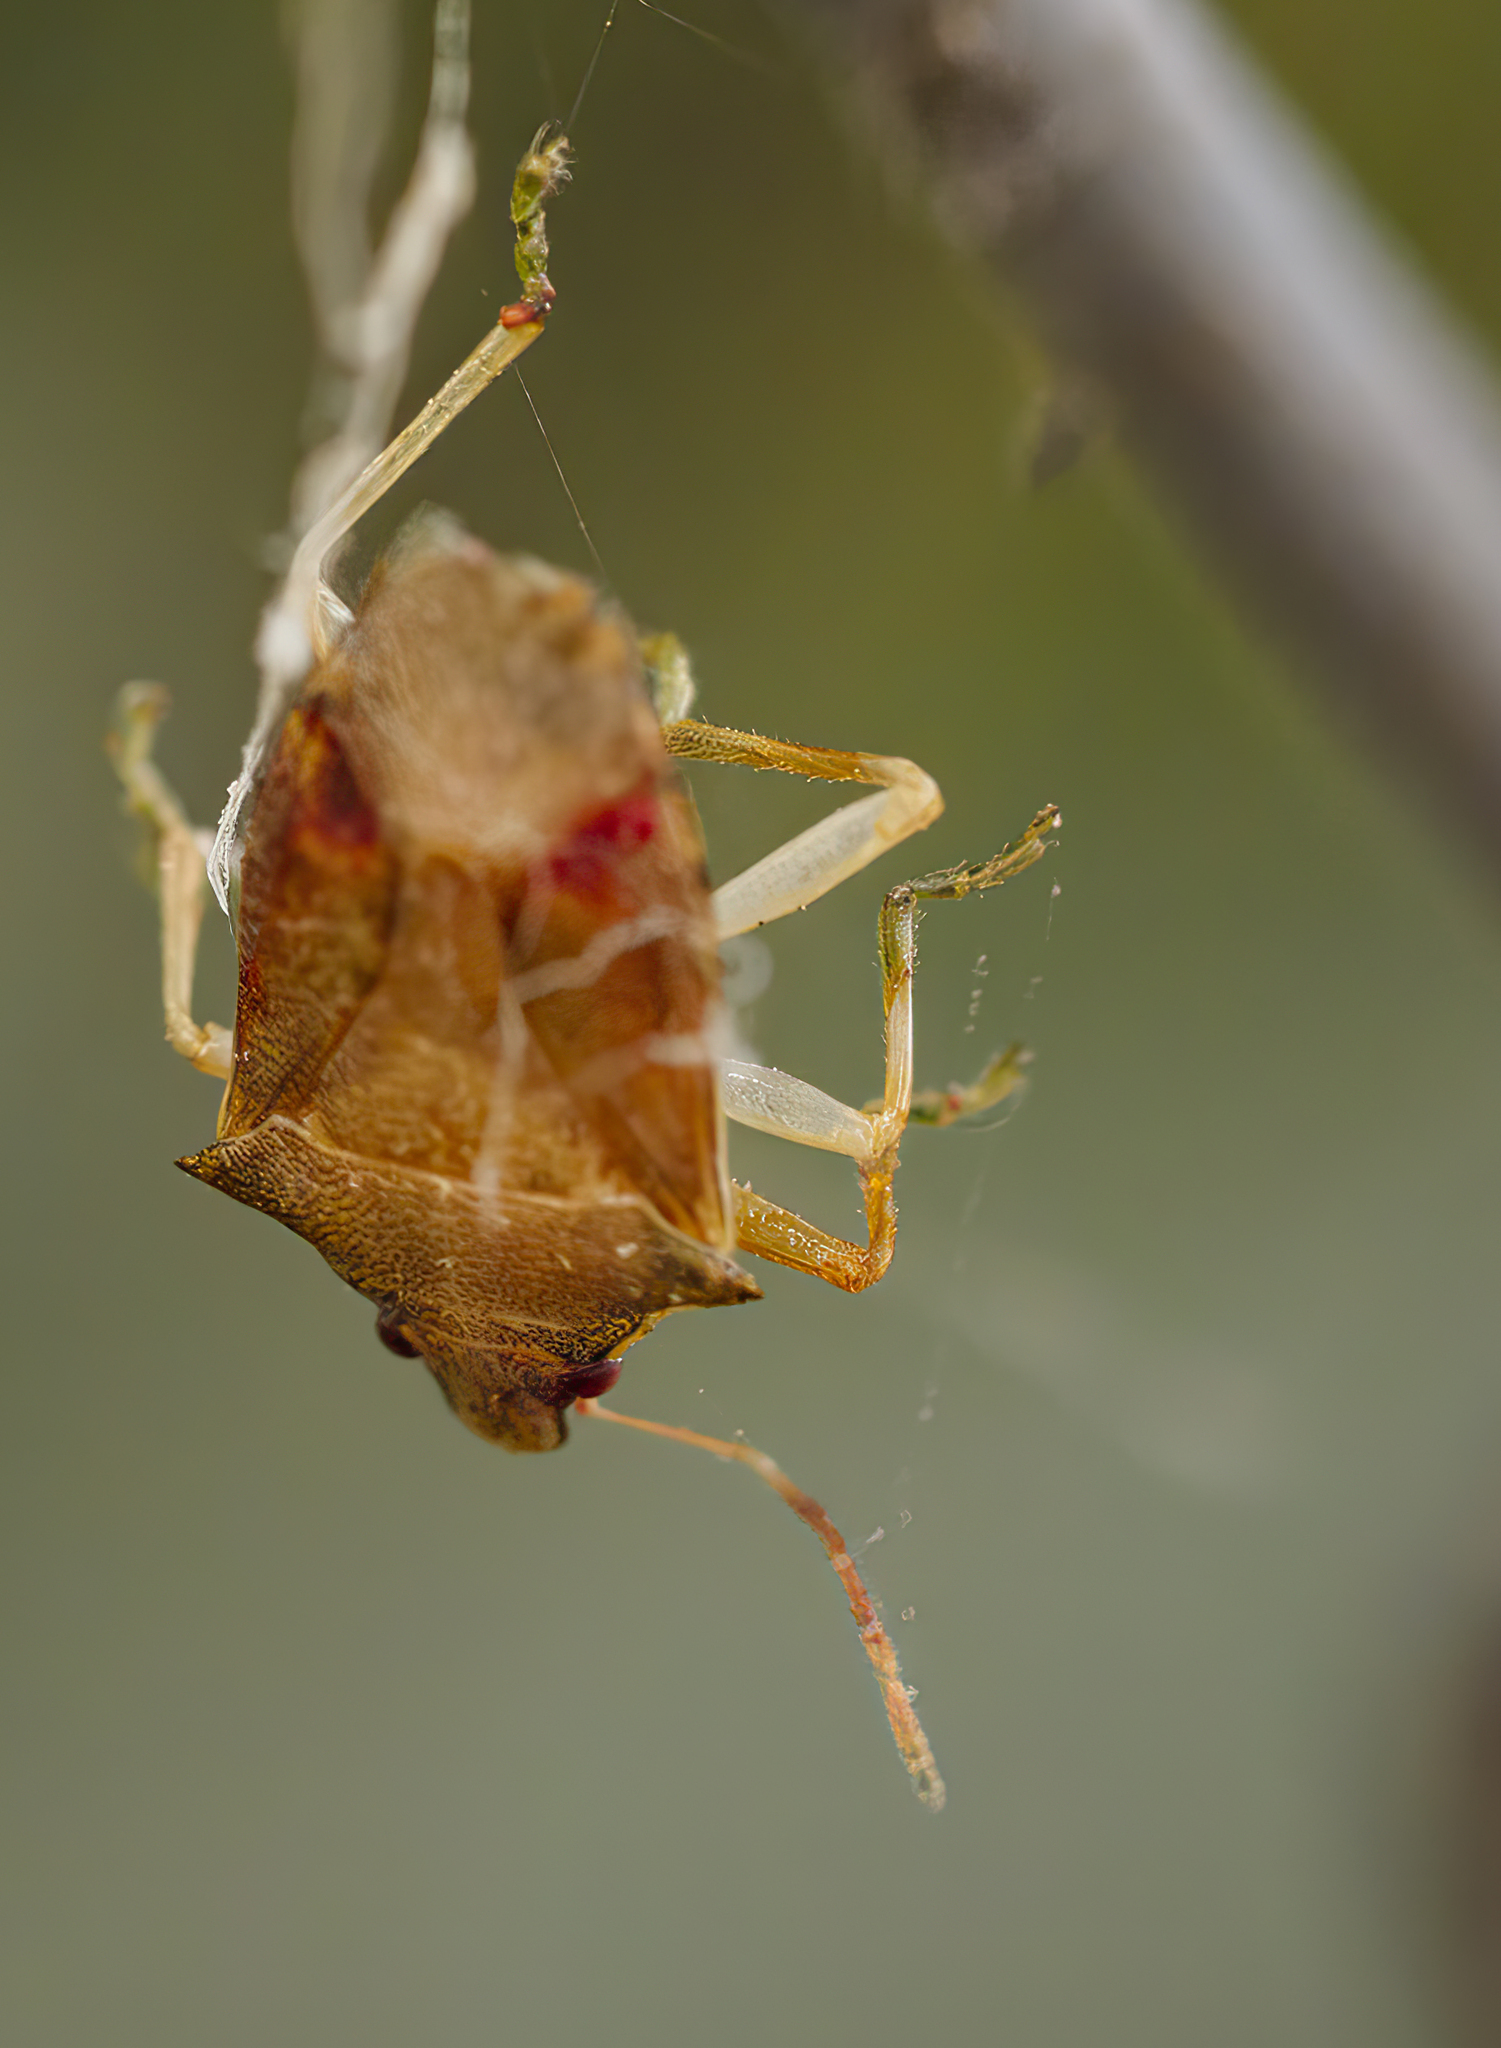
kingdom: Animalia
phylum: Arthropoda
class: Insecta
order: Hemiptera
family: Pentatomidae
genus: Supputius
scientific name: Supputius
